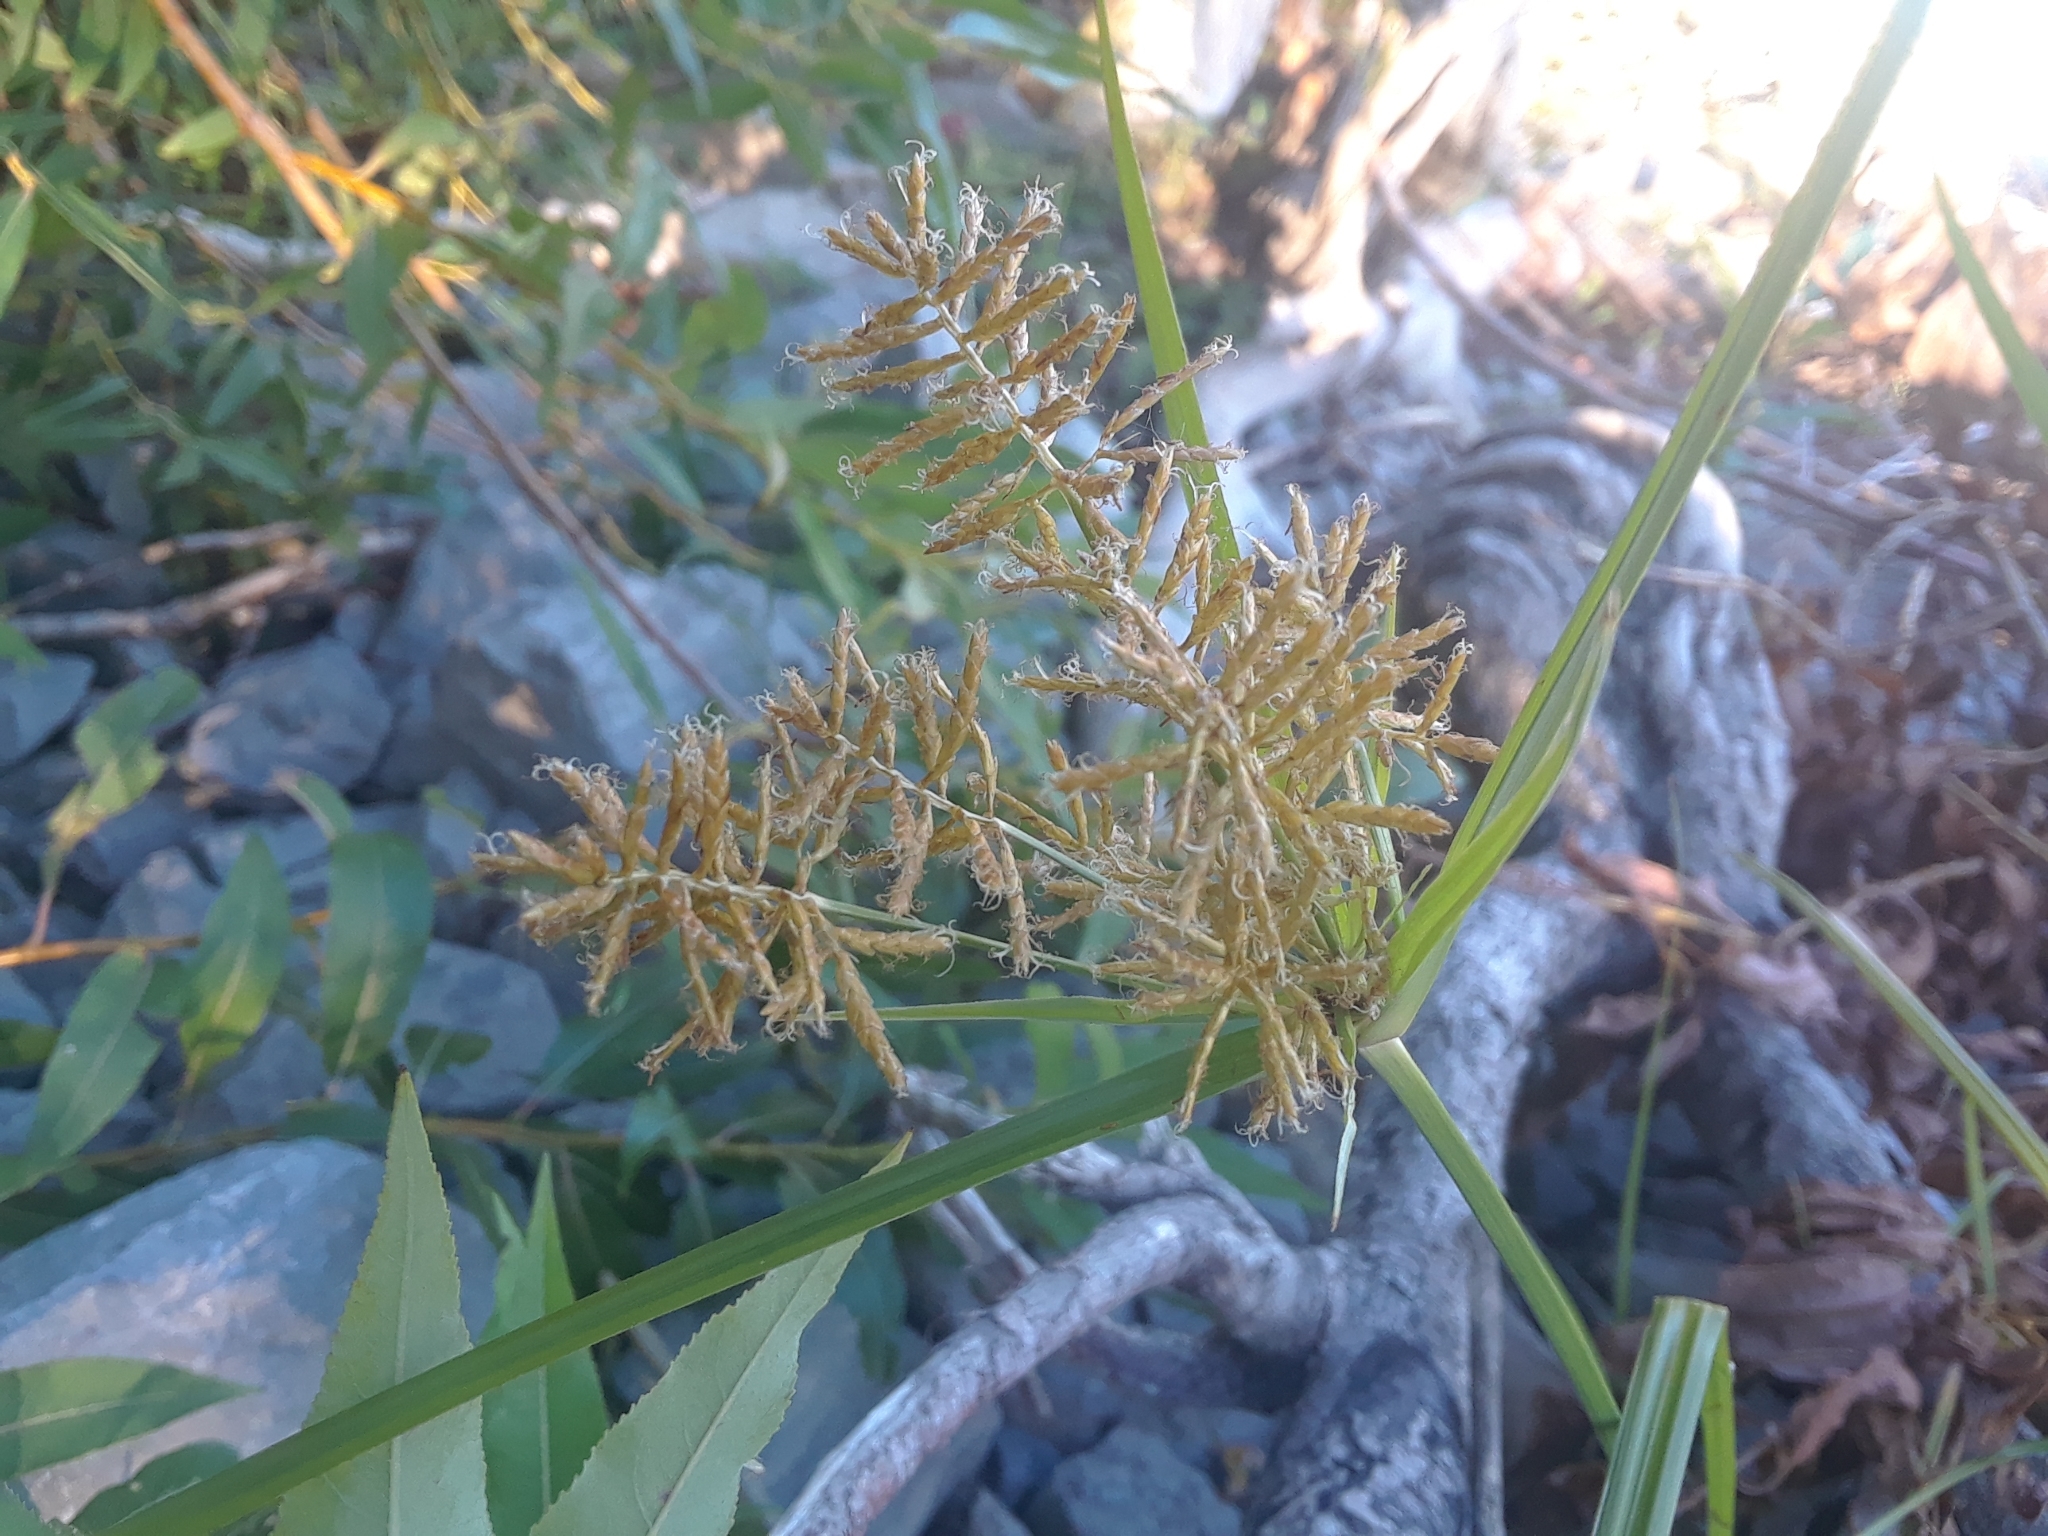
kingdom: Plantae
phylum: Tracheophyta
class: Liliopsida
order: Poales
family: Cyperaceae
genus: Cyperus
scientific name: Cyperus esculentus
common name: Yellow nutsedge
